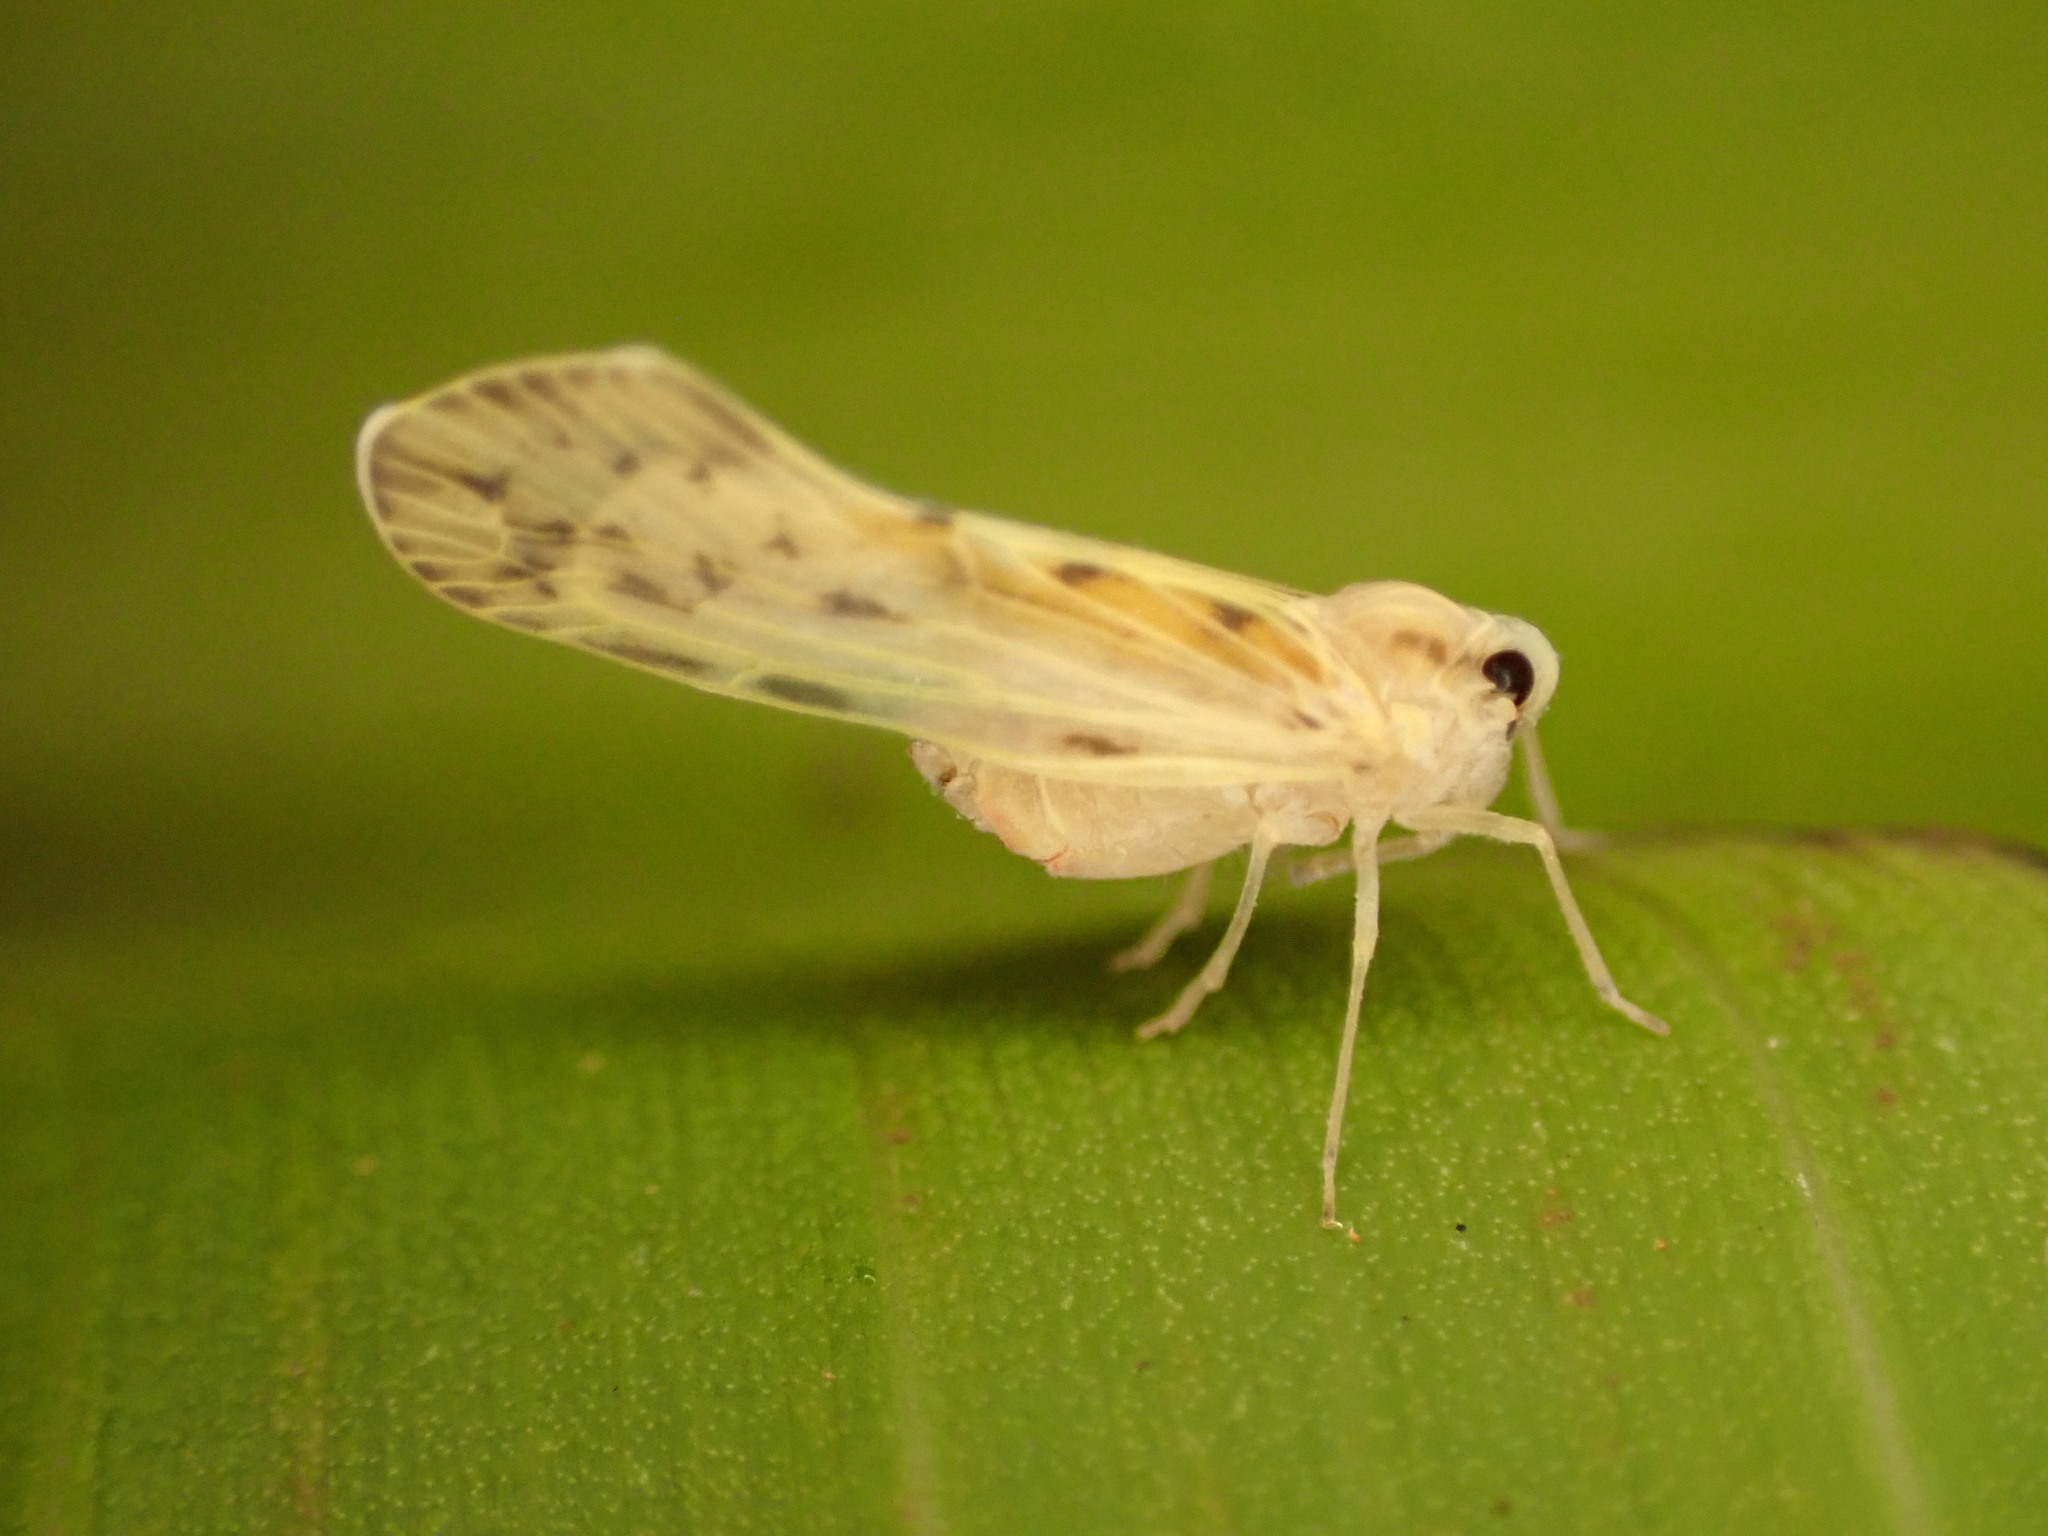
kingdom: Animalia
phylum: Arthropoda
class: Insecta
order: Hemiptera
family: Derbidae
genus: Paralyricen
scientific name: Paralyricen tefrias
